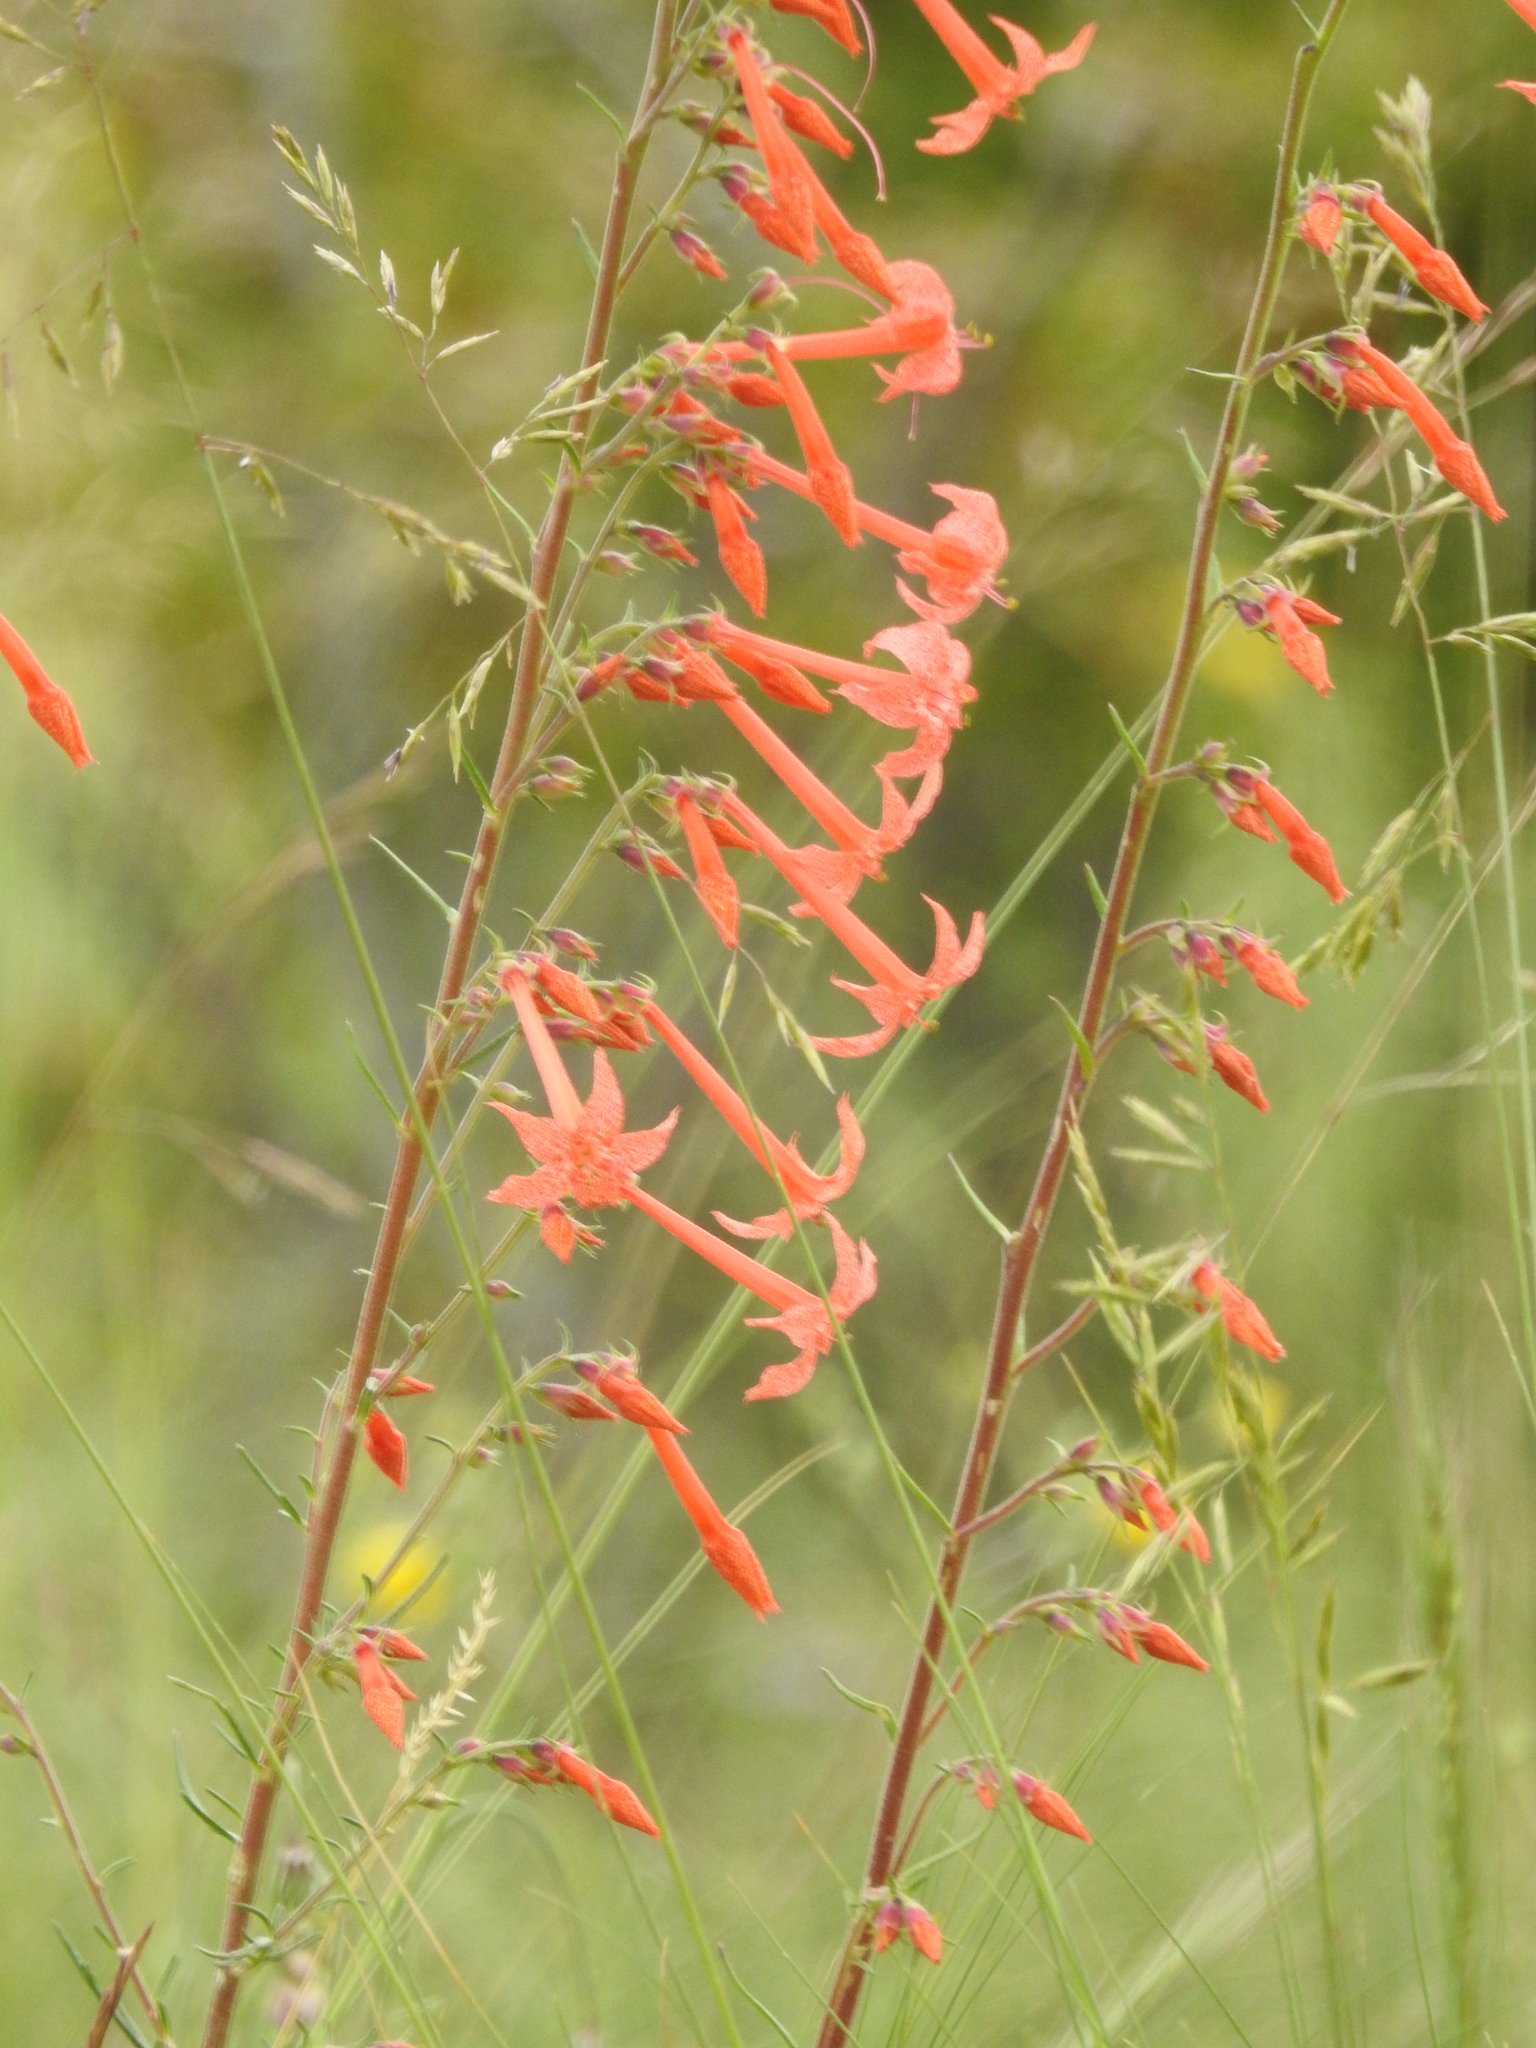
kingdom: Plantae
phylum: Tracheophyta
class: Magnoliopsida
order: Ericales
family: Polemoniaceae
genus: Ipomopsis
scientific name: Ipomopsis aggregata
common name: Scarlet gilia
